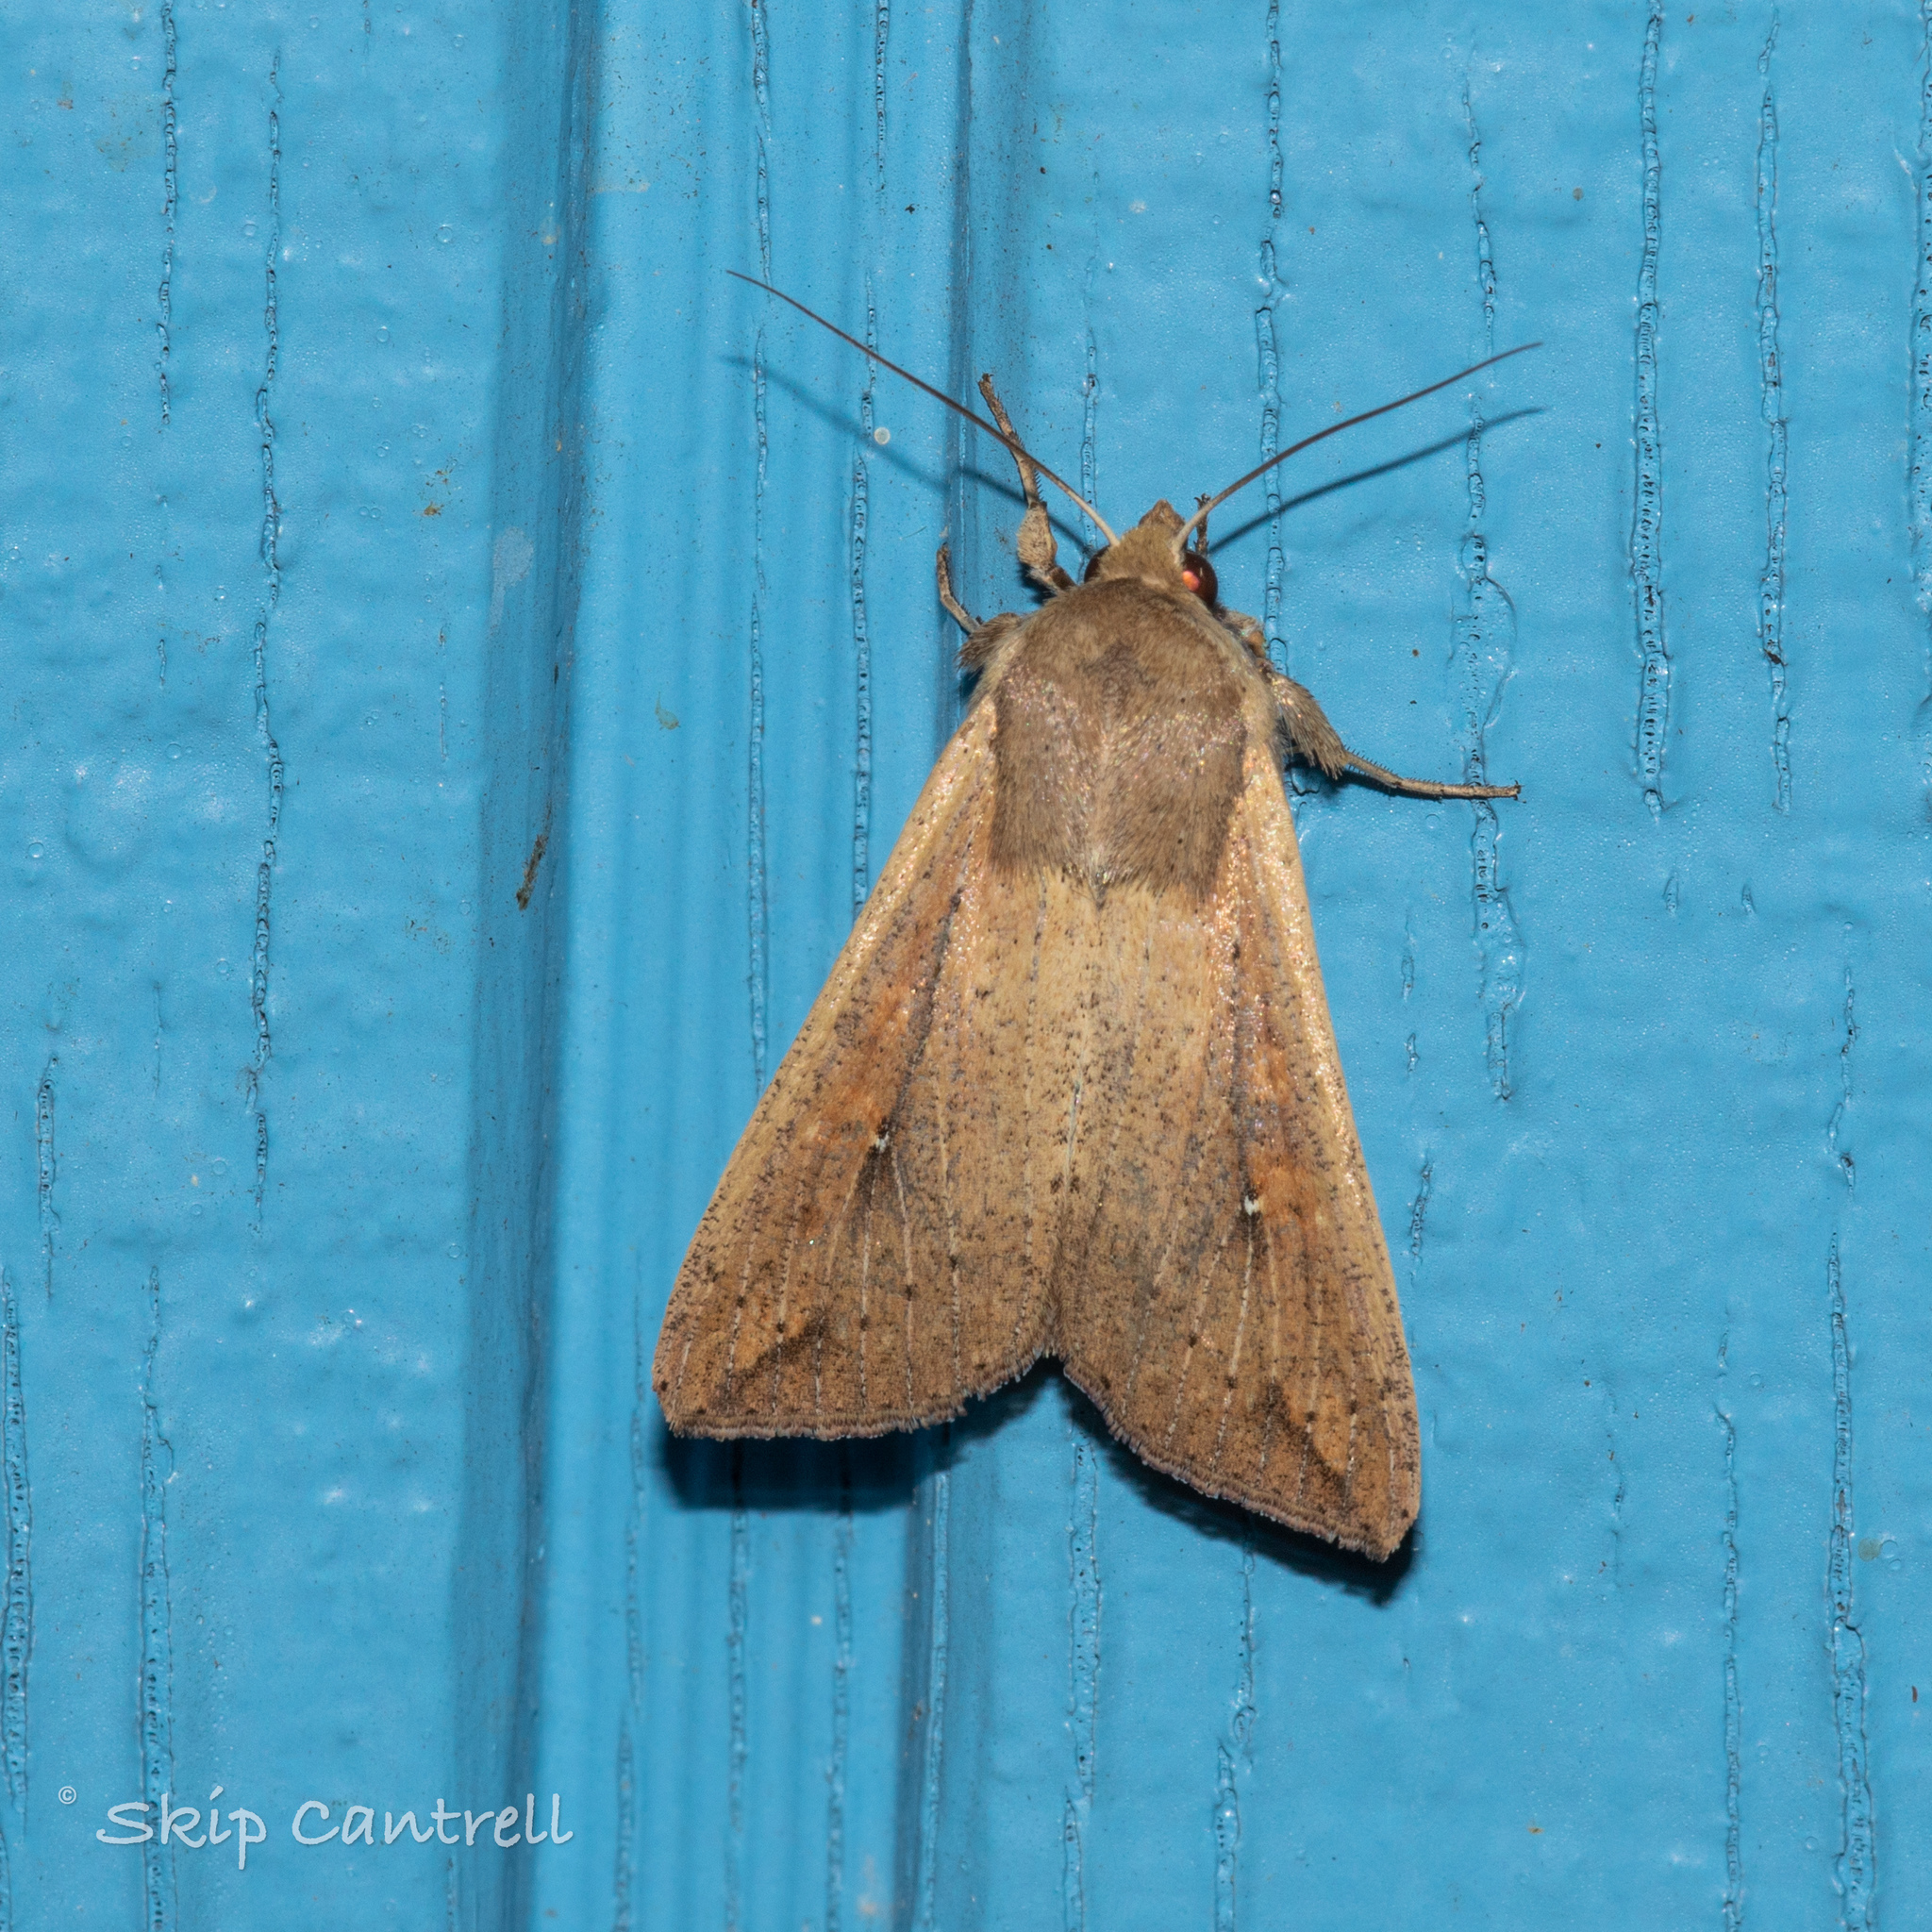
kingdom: Animalia
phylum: Arthropoda
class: Insecta
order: Lepidoptera
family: Noctuidae
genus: Mythimna
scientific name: Mythimna unipuncta
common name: White-speck
